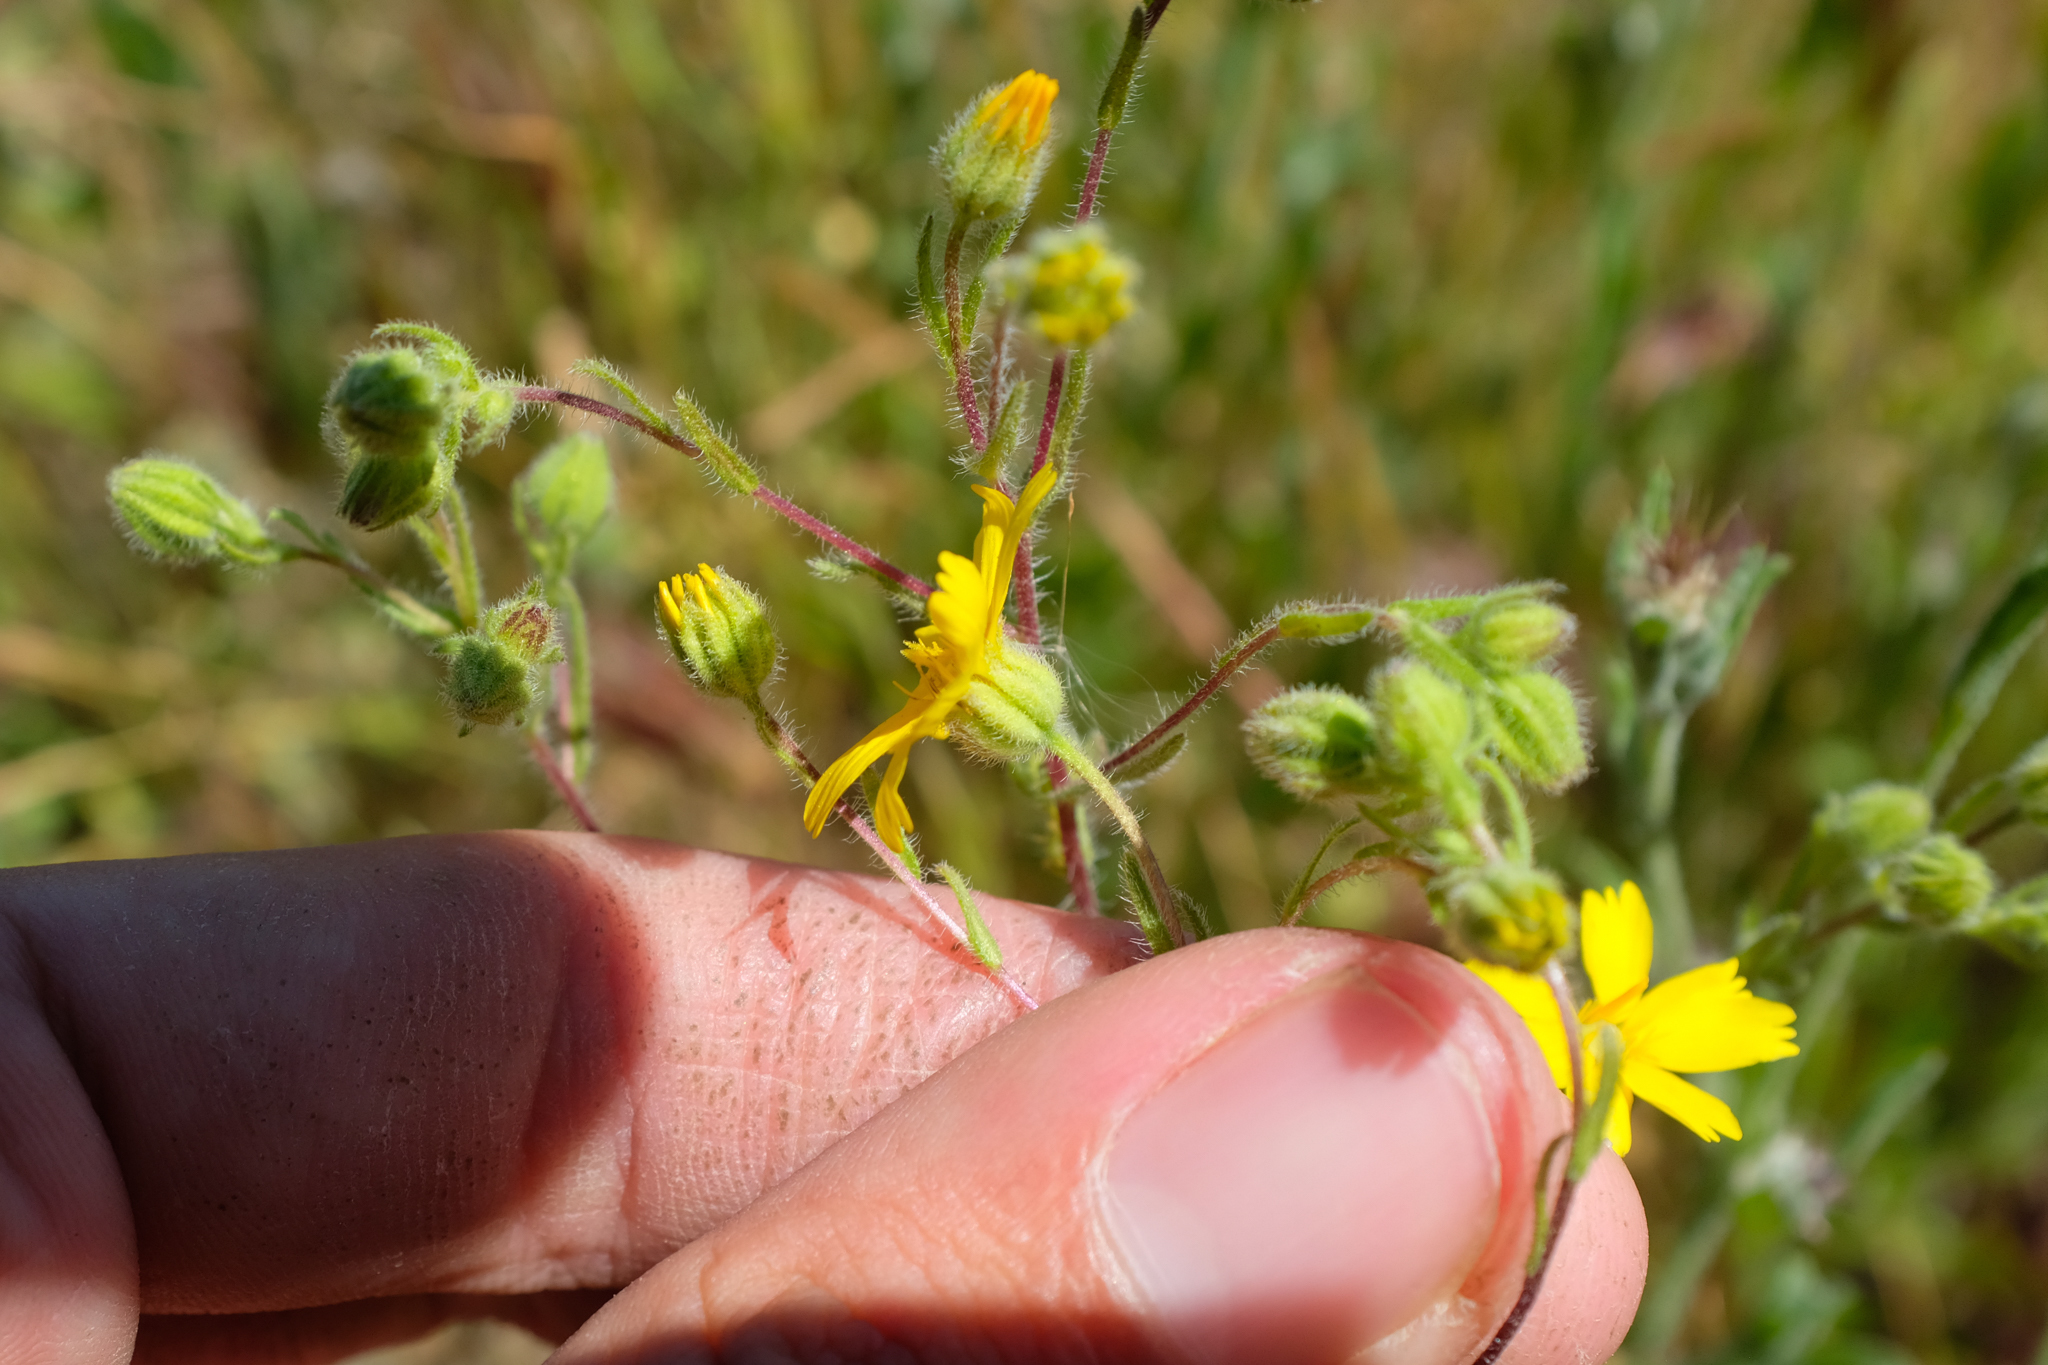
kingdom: Plantae
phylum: Tracheophyta
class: Magnoliopsida
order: Asterales
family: Asteraceae
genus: Deinandra
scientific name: Deinandra pallida
